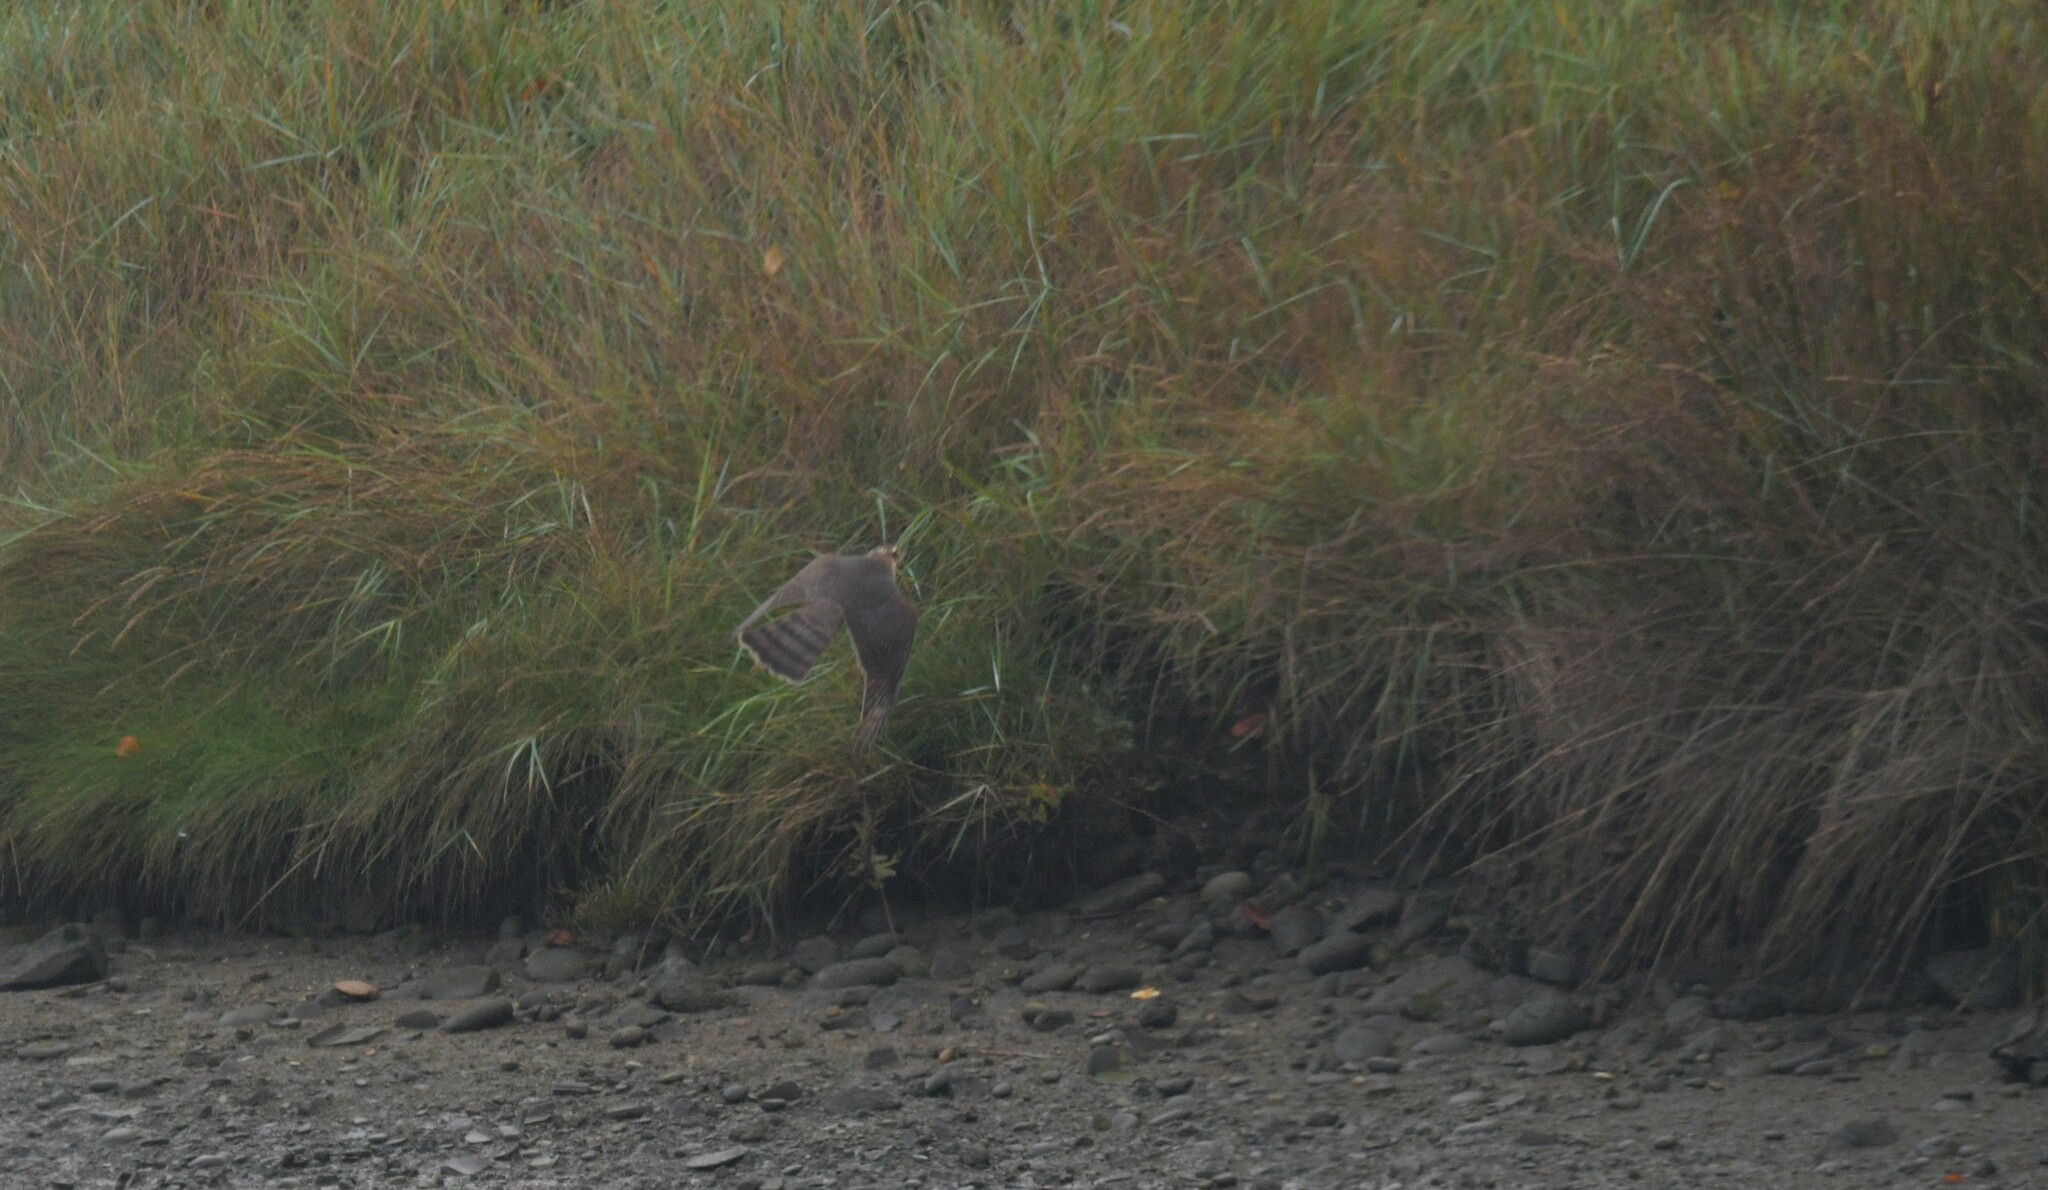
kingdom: Animalia
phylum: Chordata
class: Aves
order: Accipitriformes
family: Accipitridae
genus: Accipiter
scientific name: Accipiter nisus
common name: Eurasian sparrowhawk
